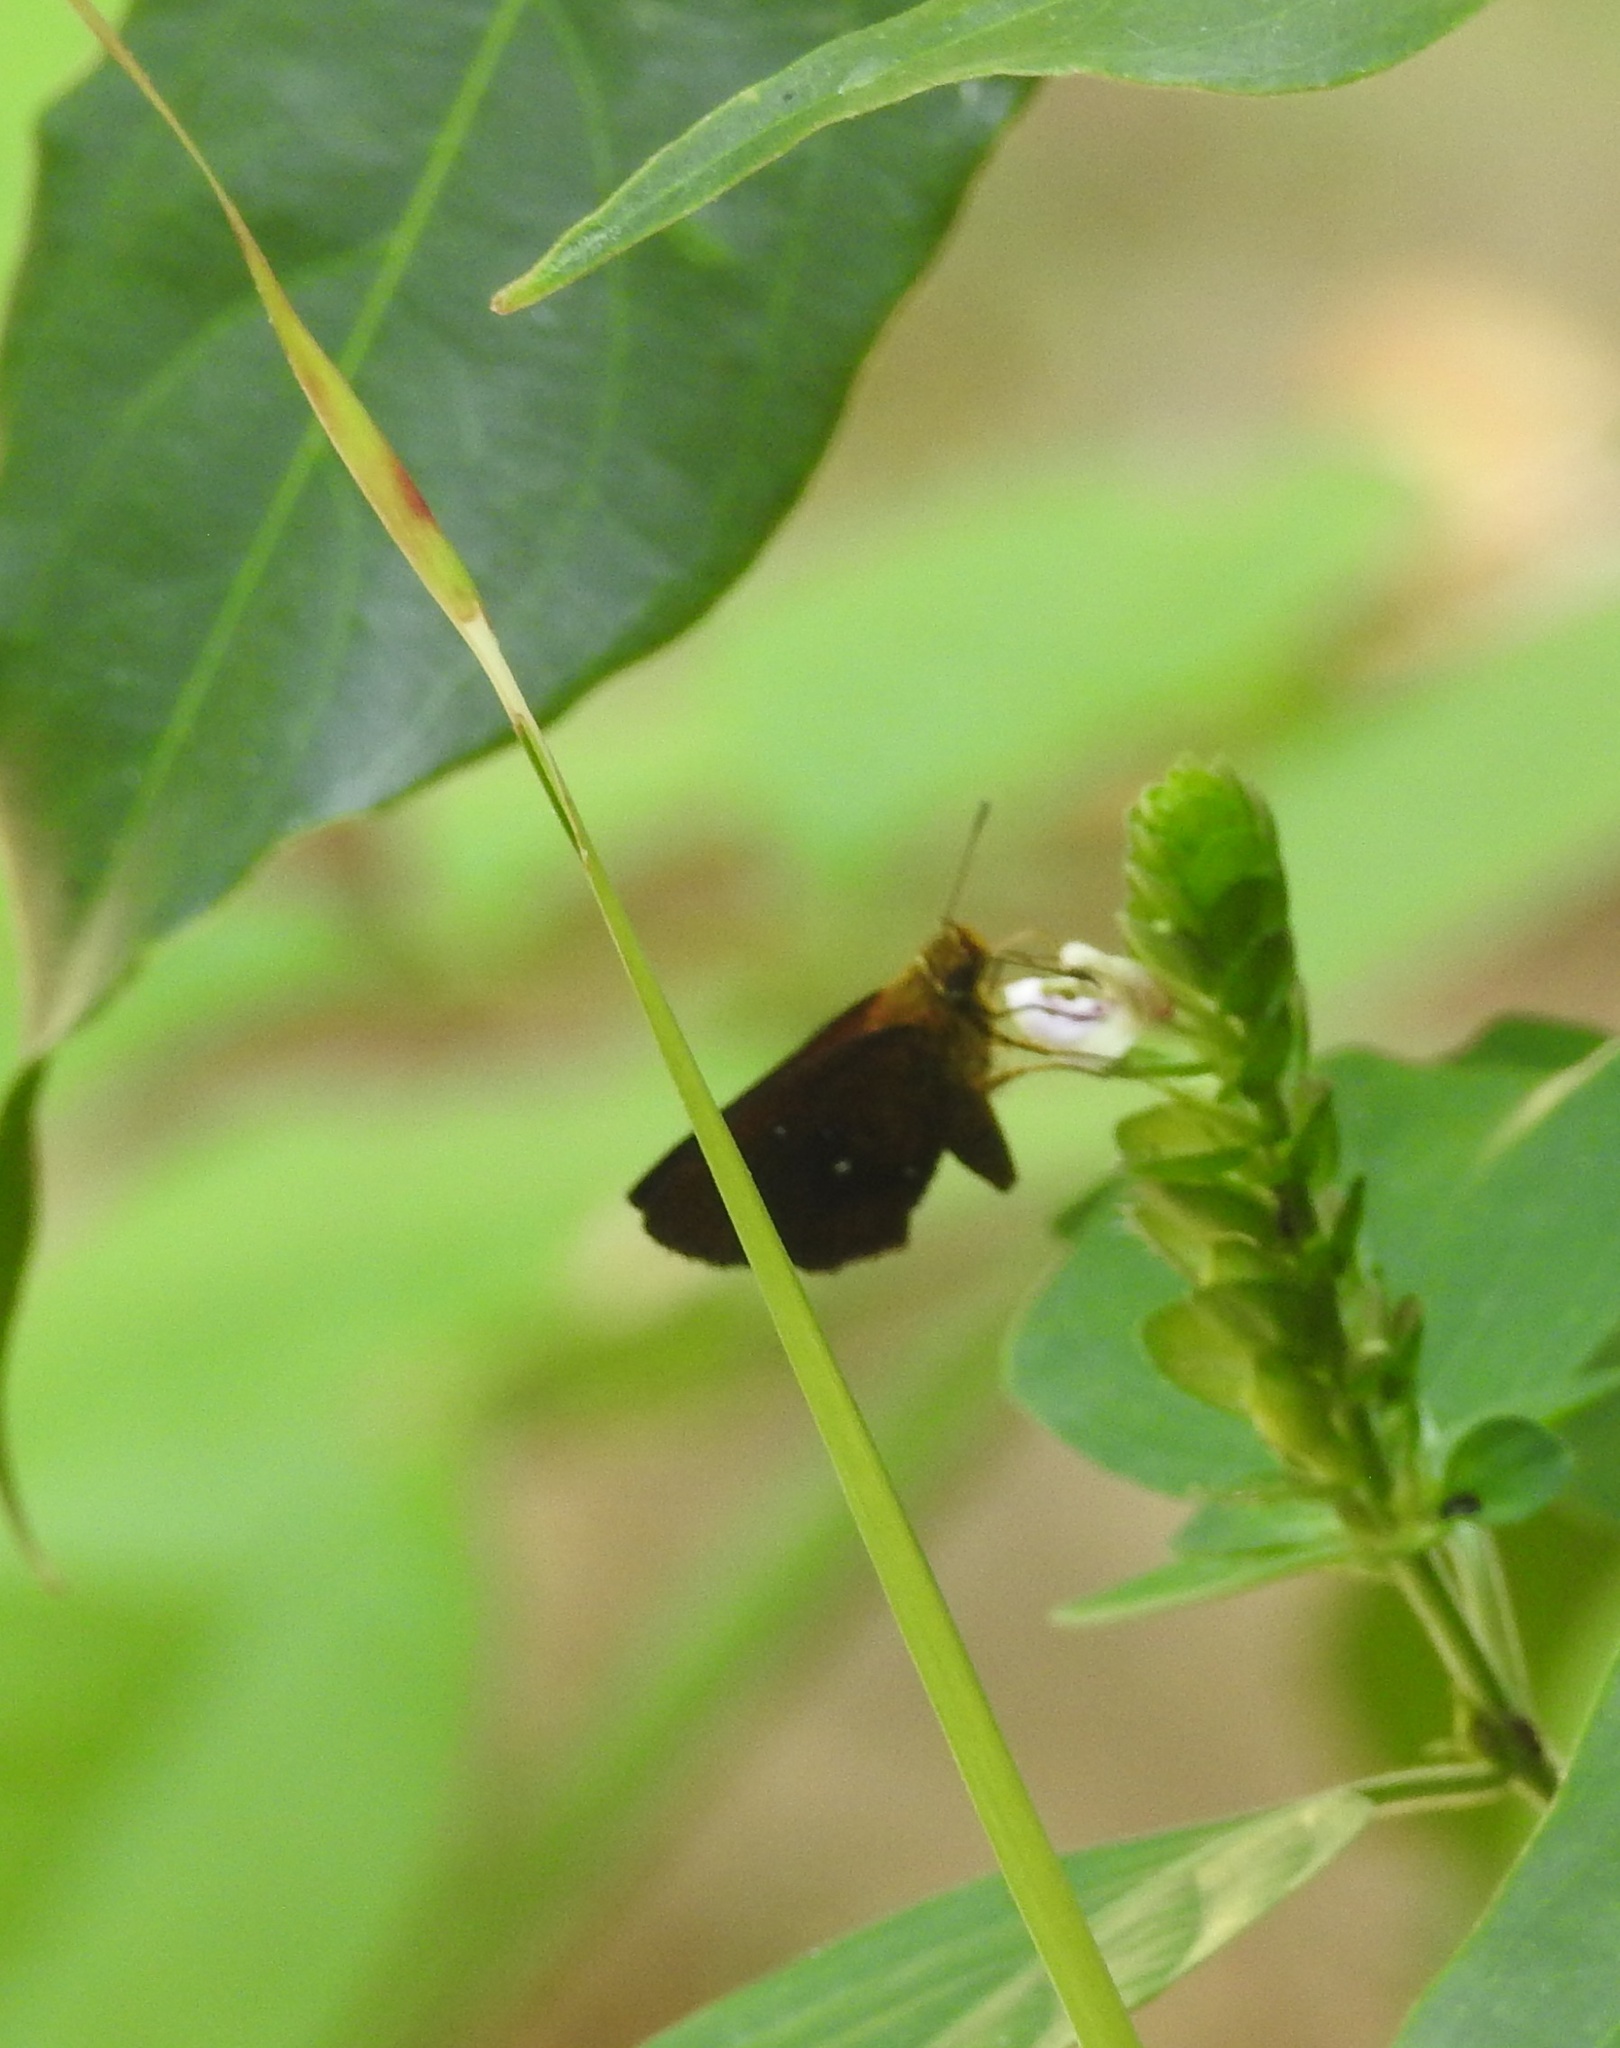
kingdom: Animalia
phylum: Arthropoda
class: Insecta
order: Lepidoptera
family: Hesperiidae
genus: Iambrix
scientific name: Iambrix salsala
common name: Chestnut bob
